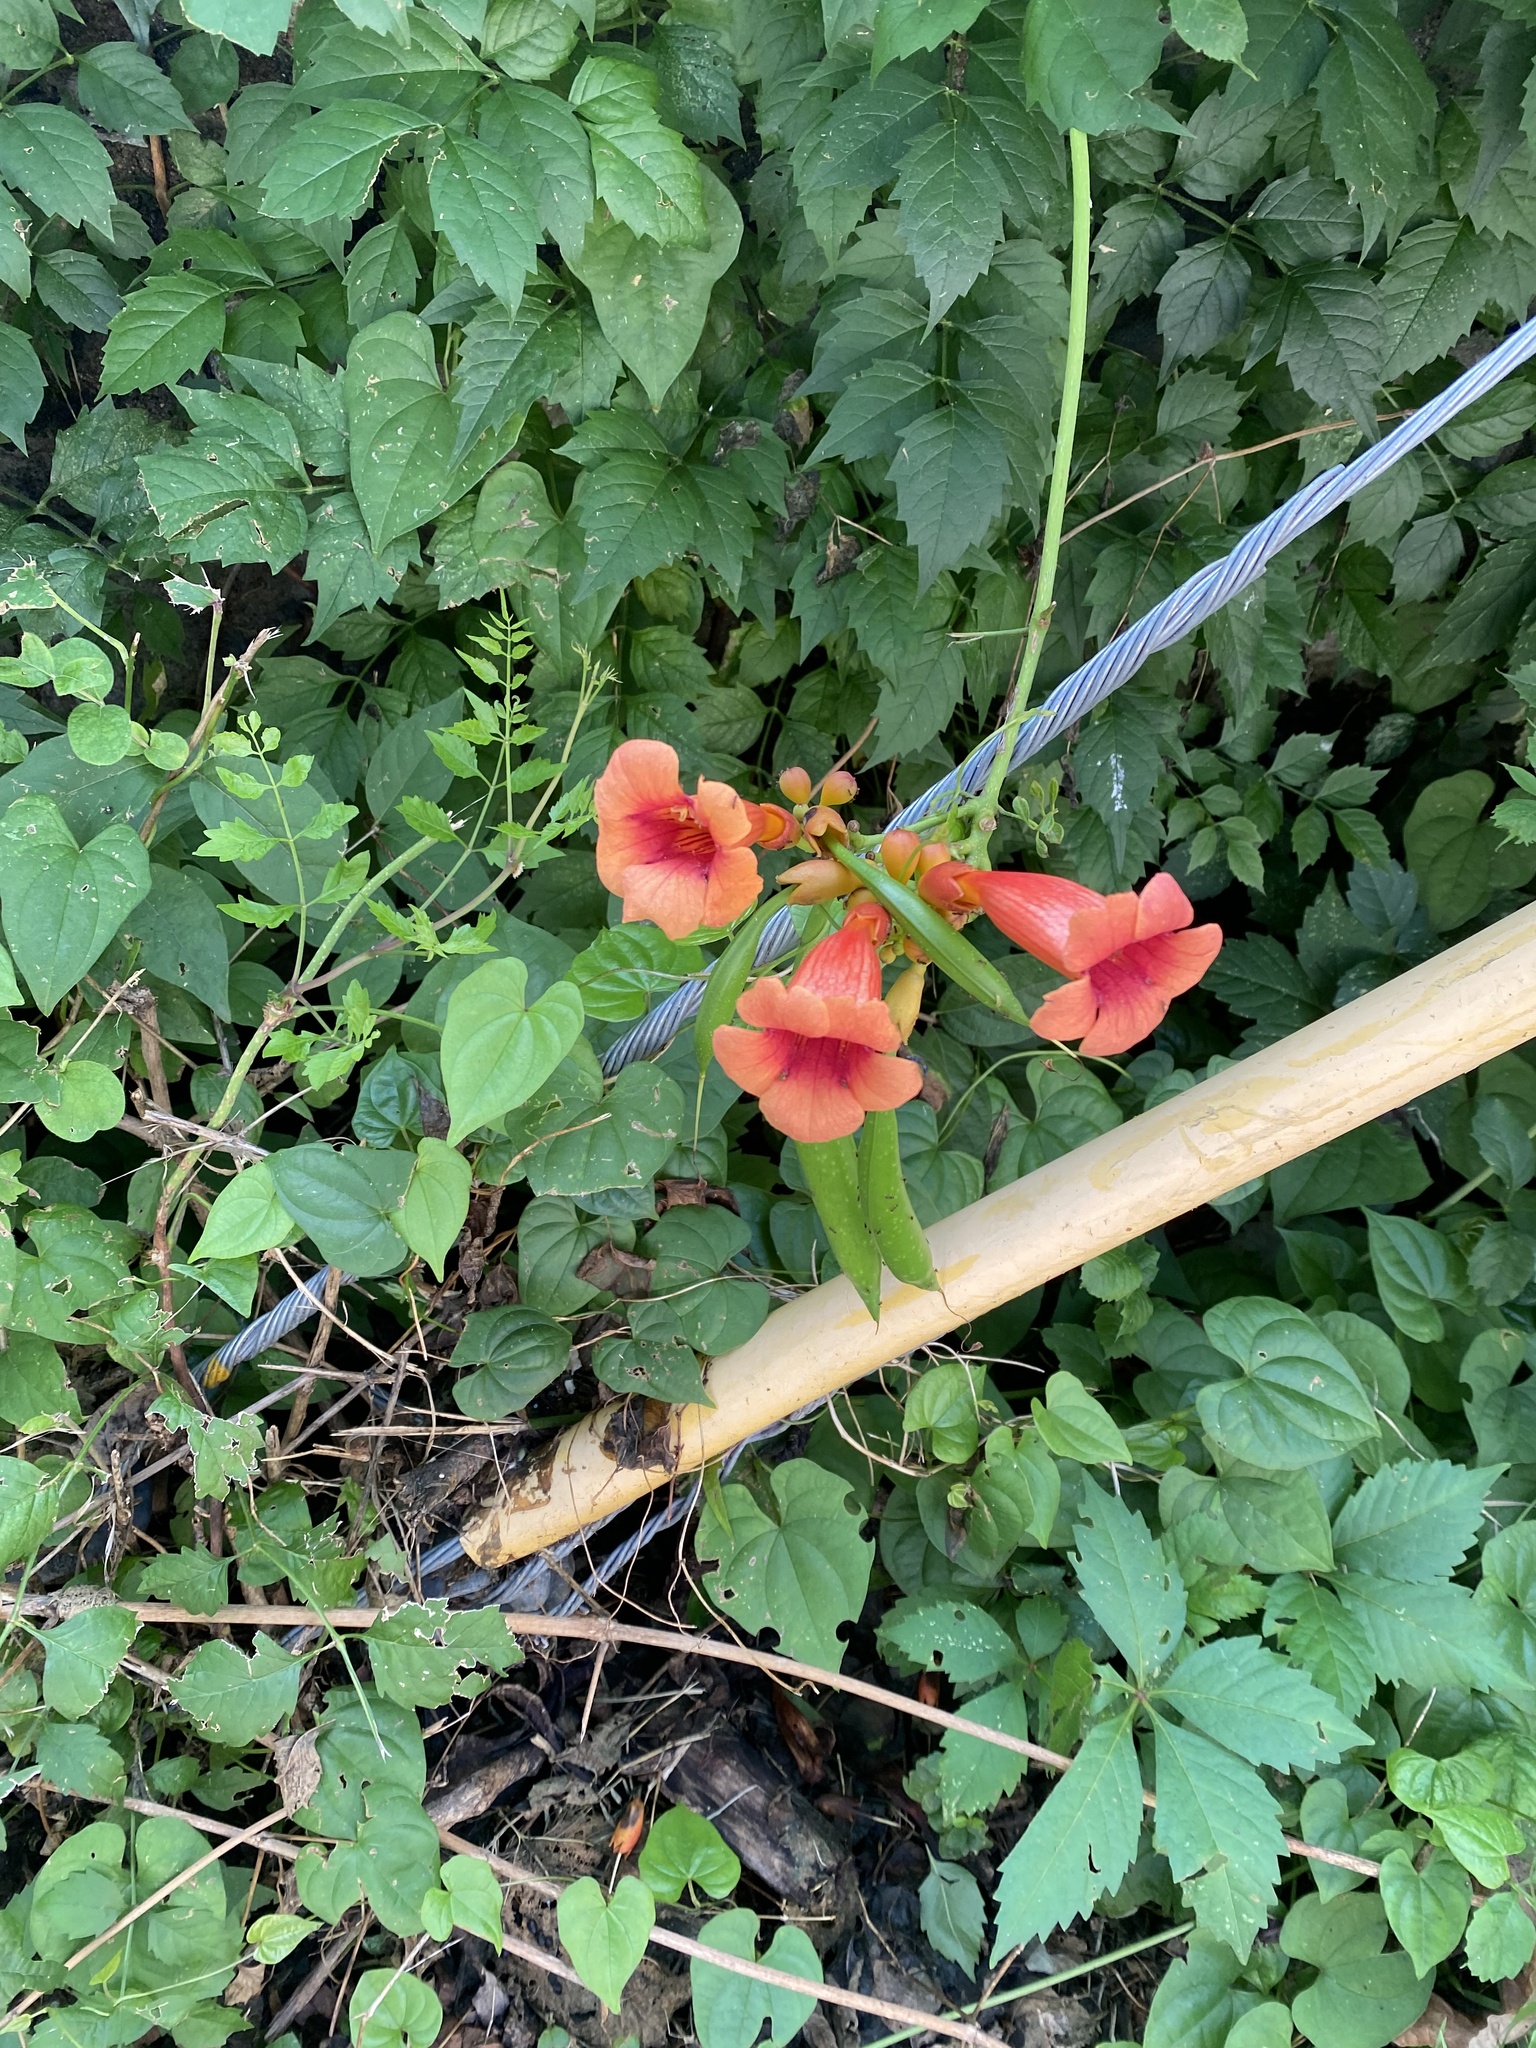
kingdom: Plantae
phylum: Tracheophyta
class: Magnoliopsida
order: Lamiales
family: Bignoniaceae
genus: Campsis
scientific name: Campsis radicans
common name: Trumpet-creeper
